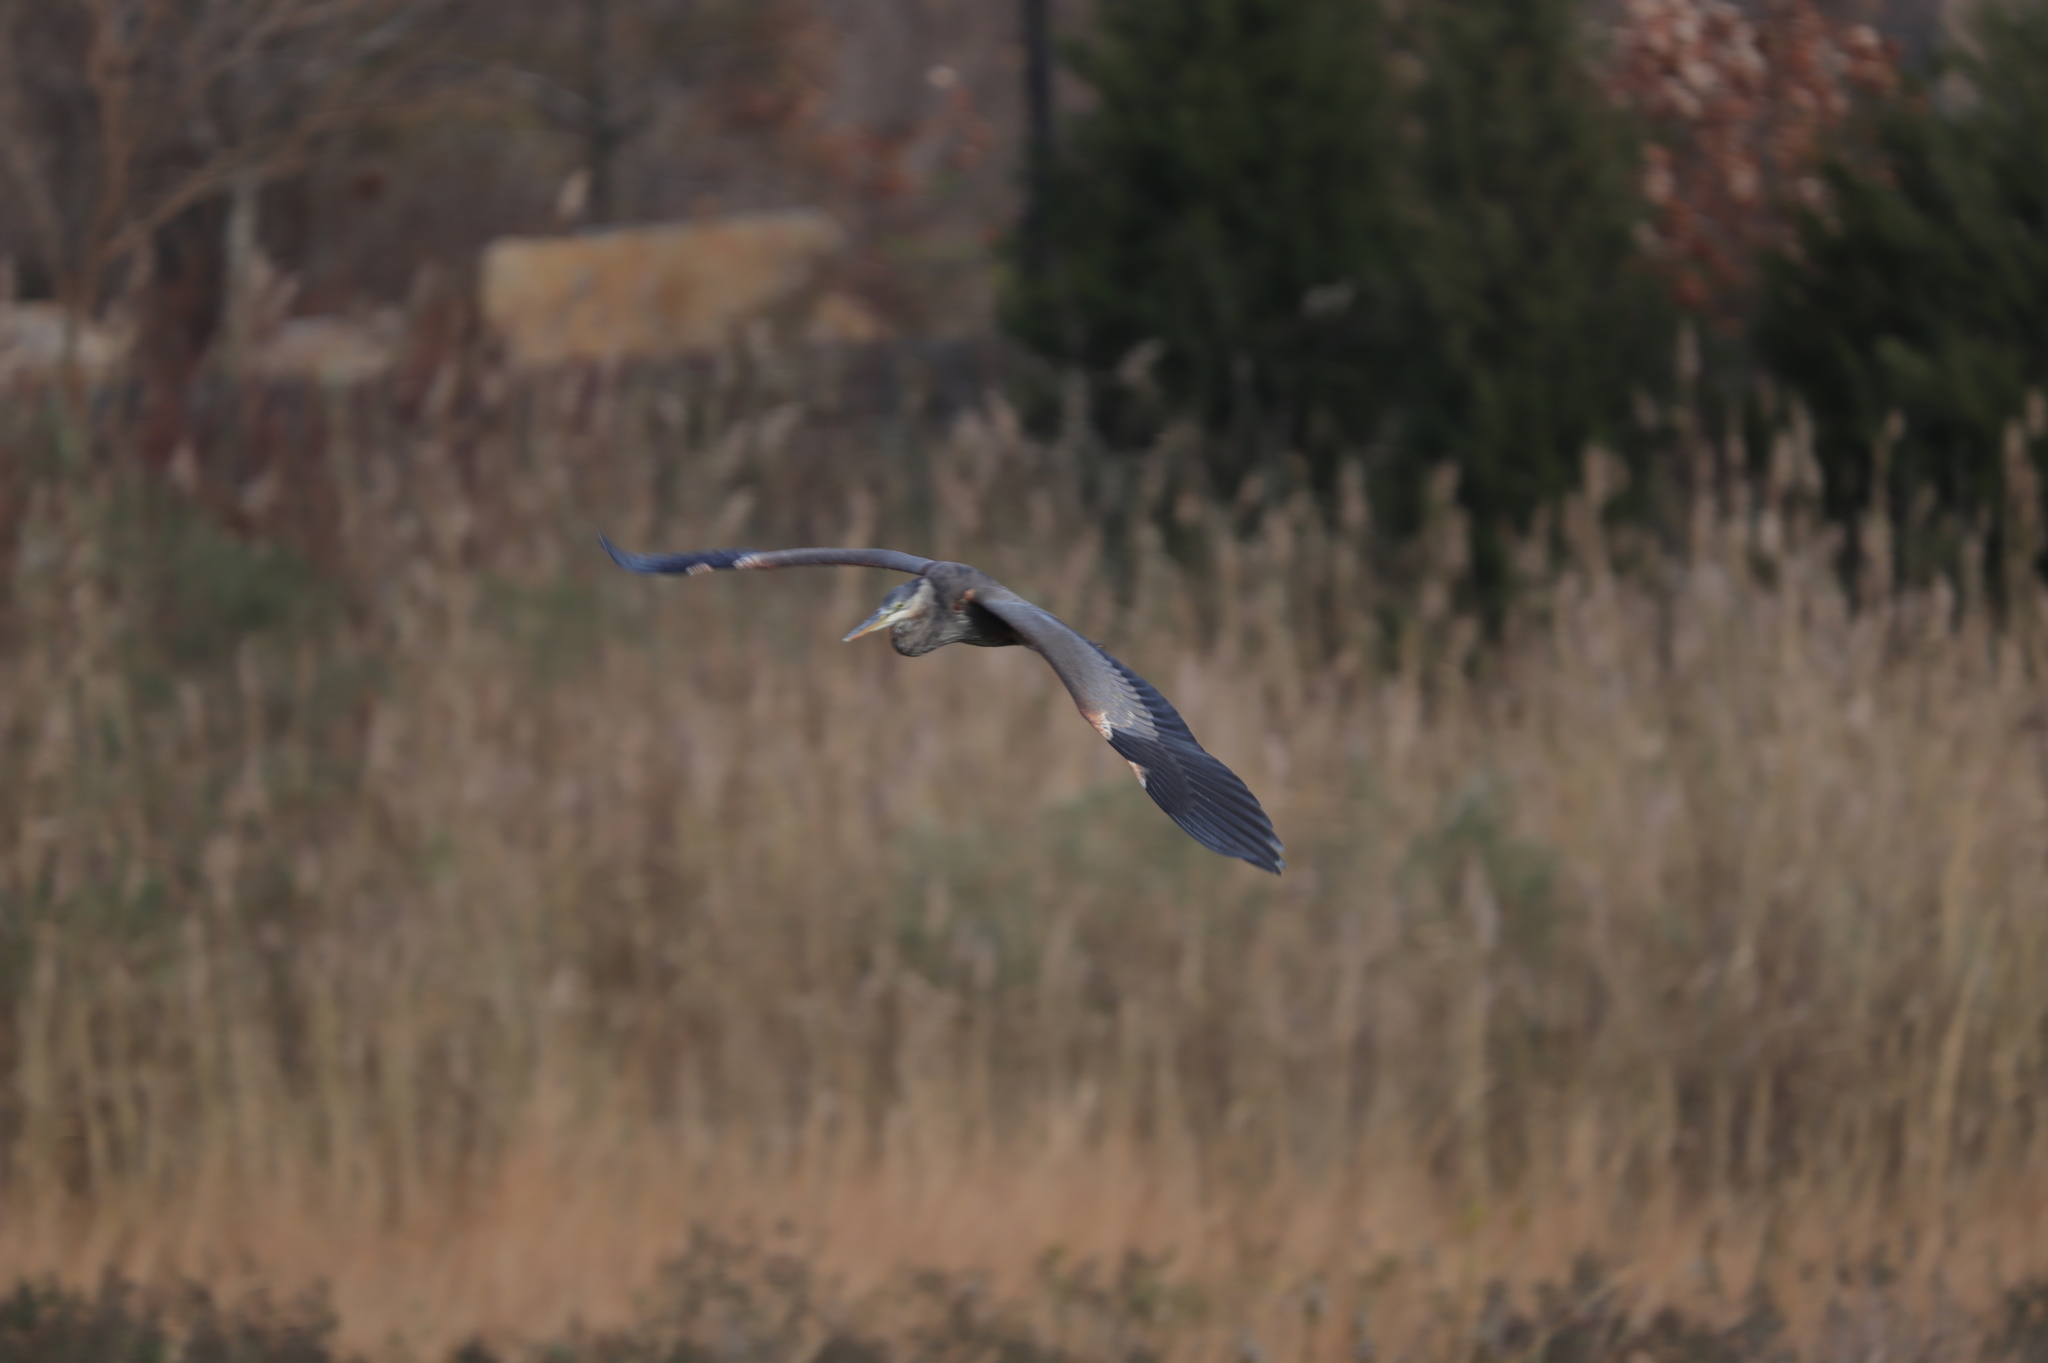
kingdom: Animalia
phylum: Chordata
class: Aves
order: Pelecaniformes
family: Ardeidae
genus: Ardea
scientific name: Ardea herodias
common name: Great blue heron
